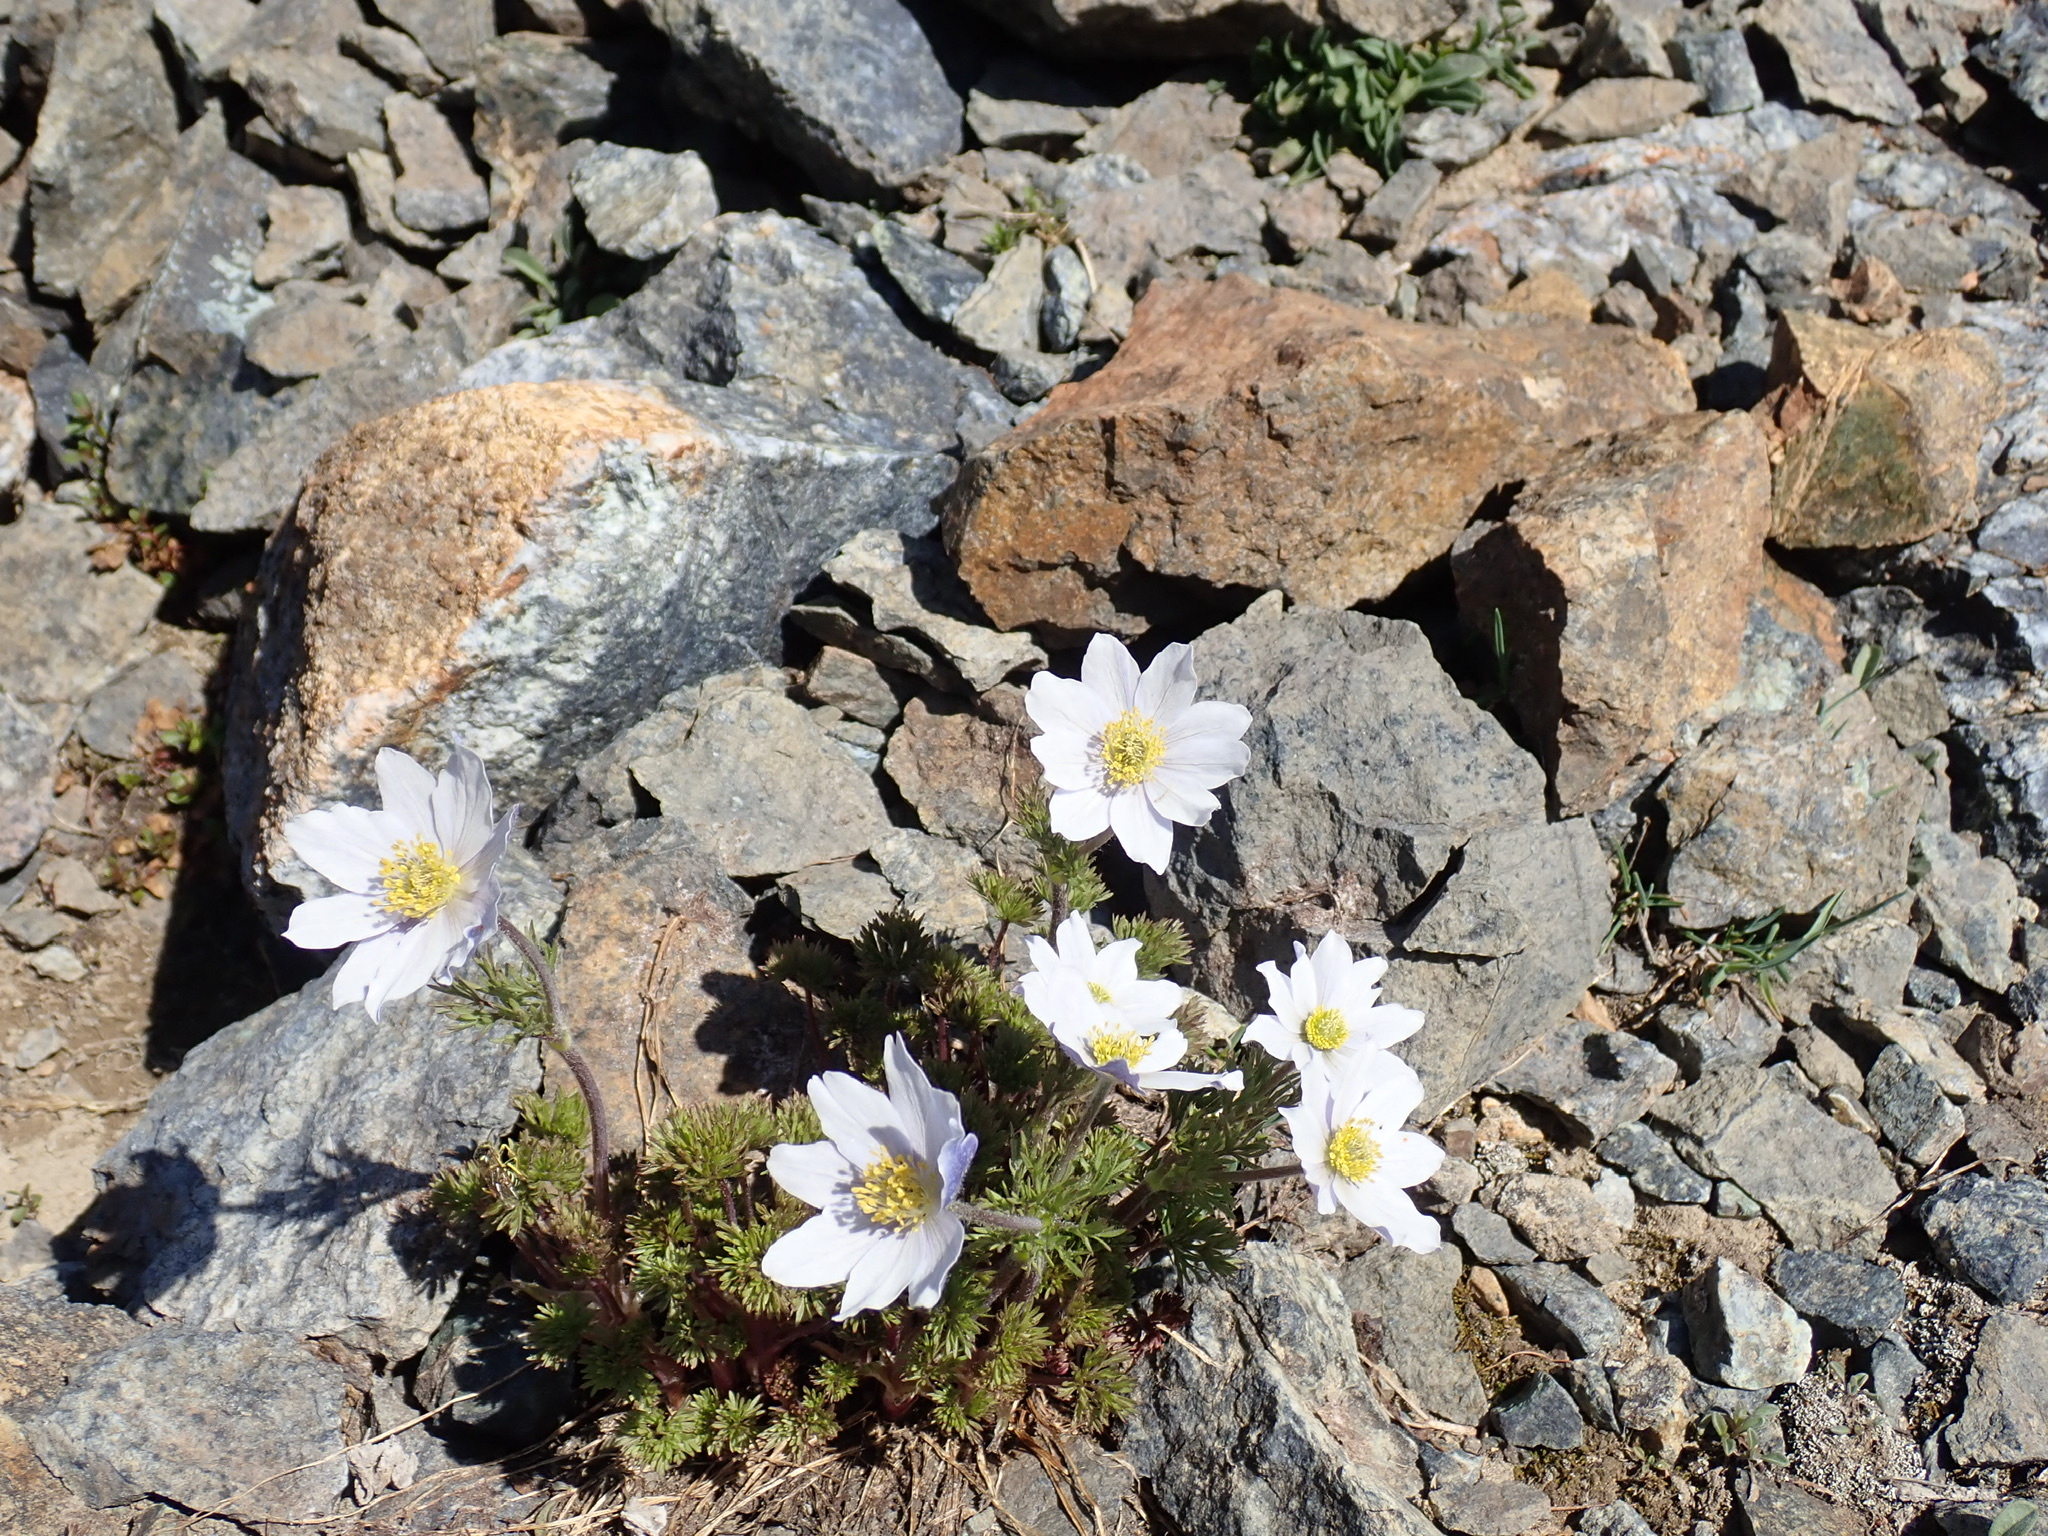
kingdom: Plantae
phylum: Tracheophyta
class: Magnoliopsida
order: Ranunculales
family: Ranunculaceae
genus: Anemone
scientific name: Anemone drummondii
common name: Drummond's anemone
